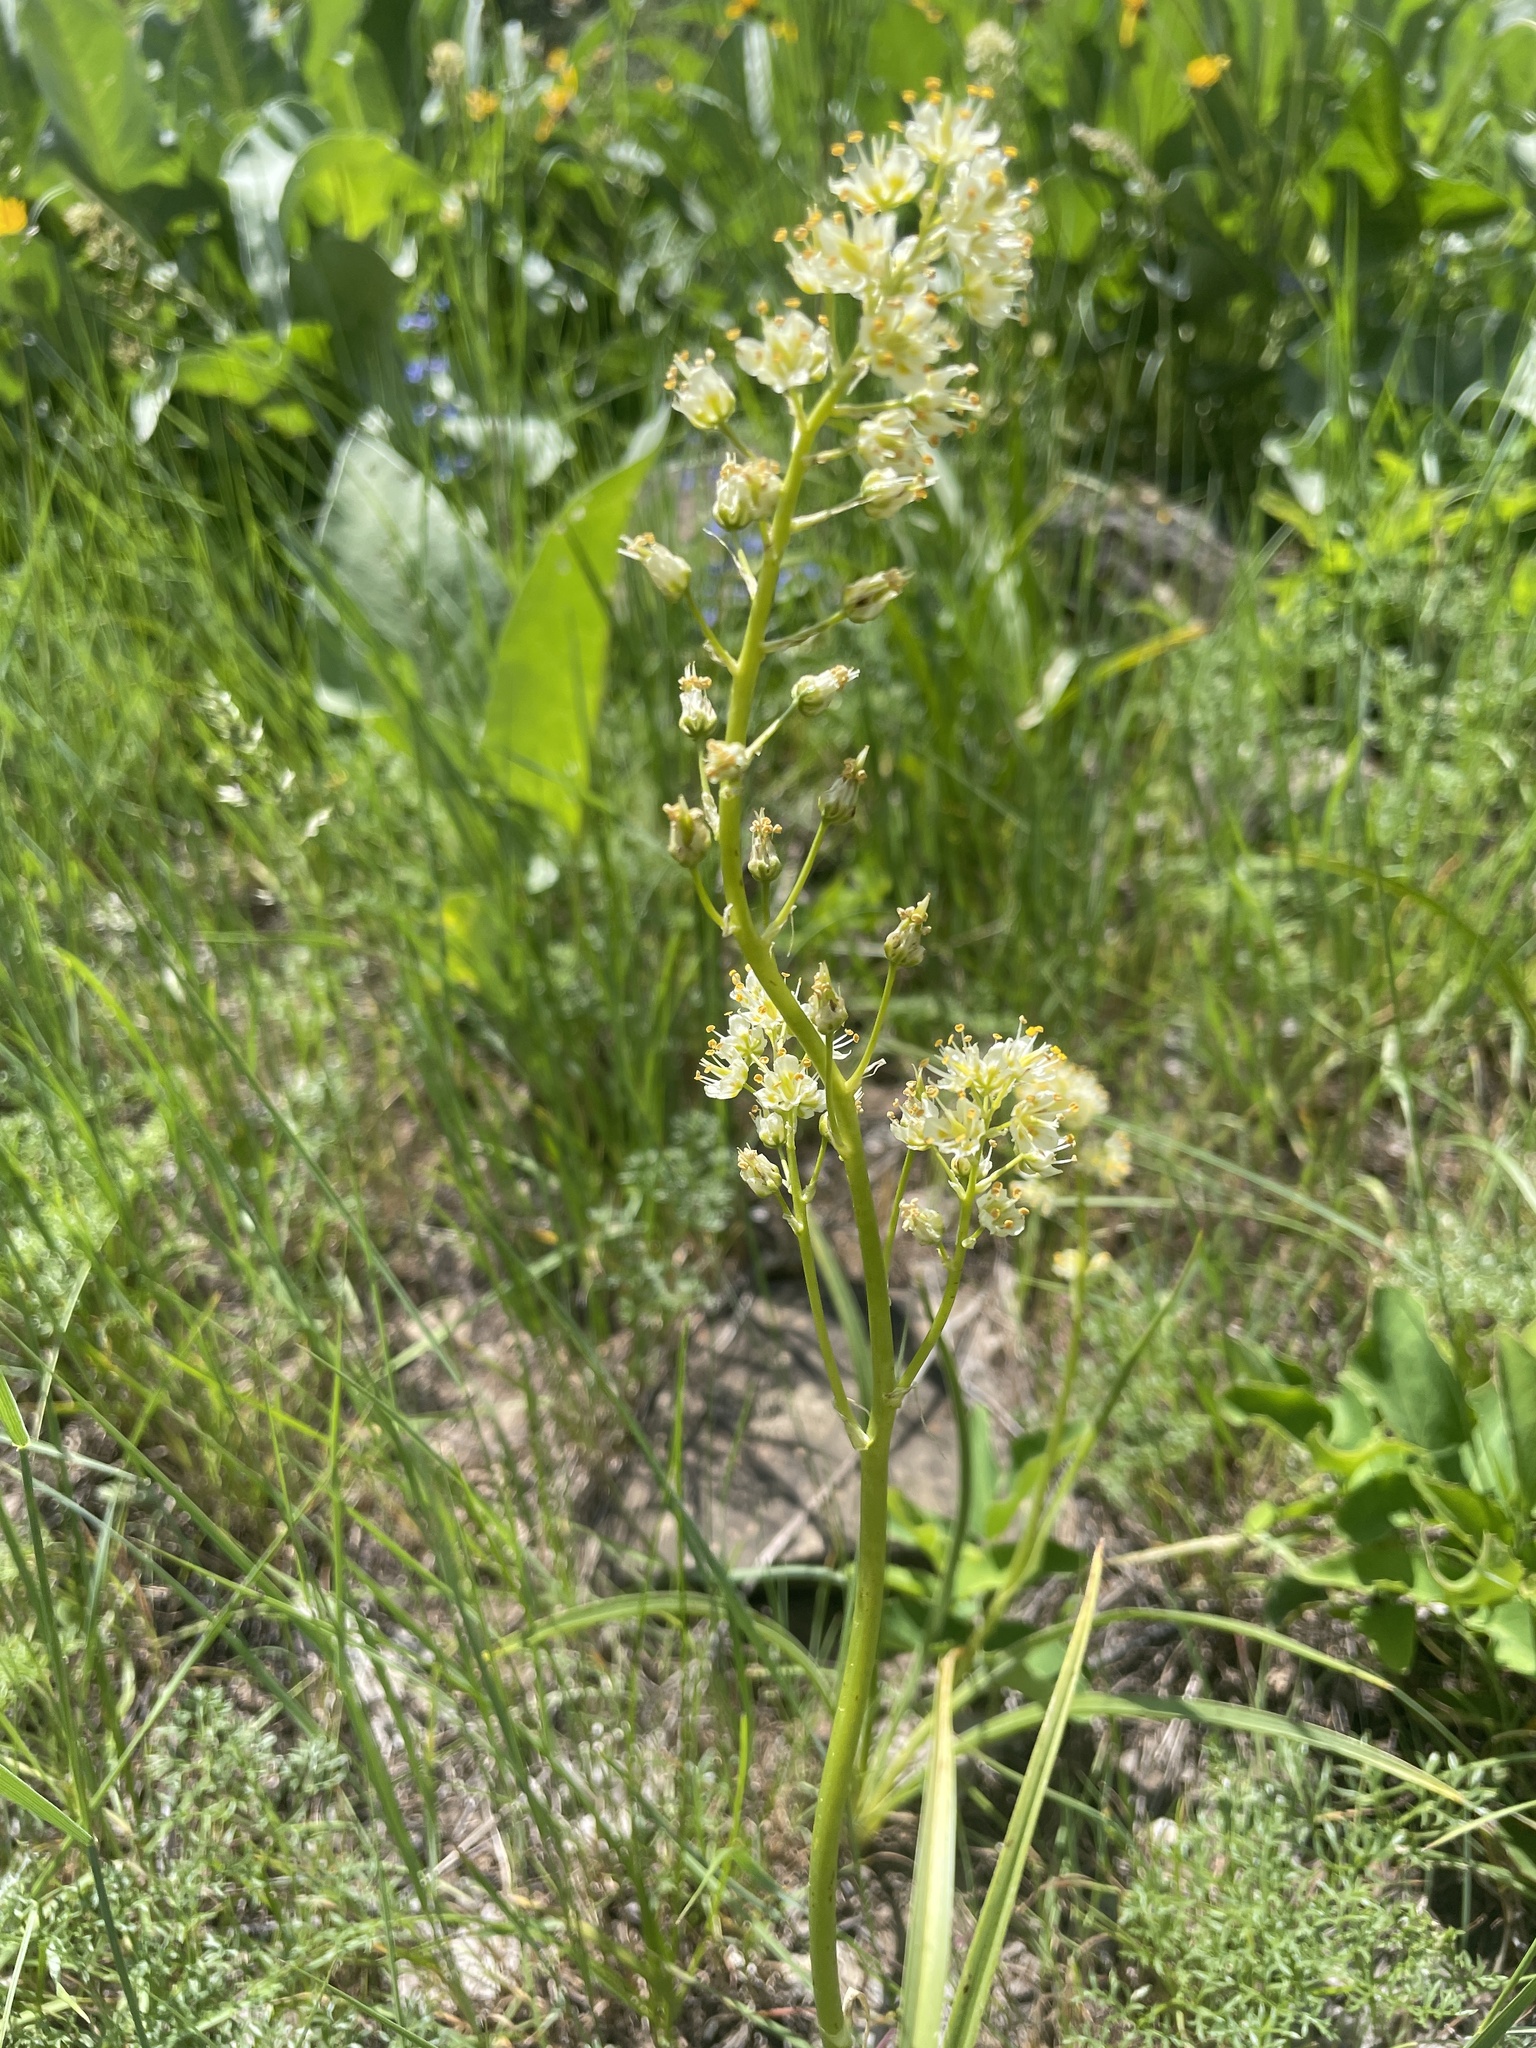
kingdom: Plantae
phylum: Tracheophyta
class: Liliopsida
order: Liliales
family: Melanthiaceae
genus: Toxicoscordion
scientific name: Toxicoscordion paniculatum
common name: Foothill death camas
